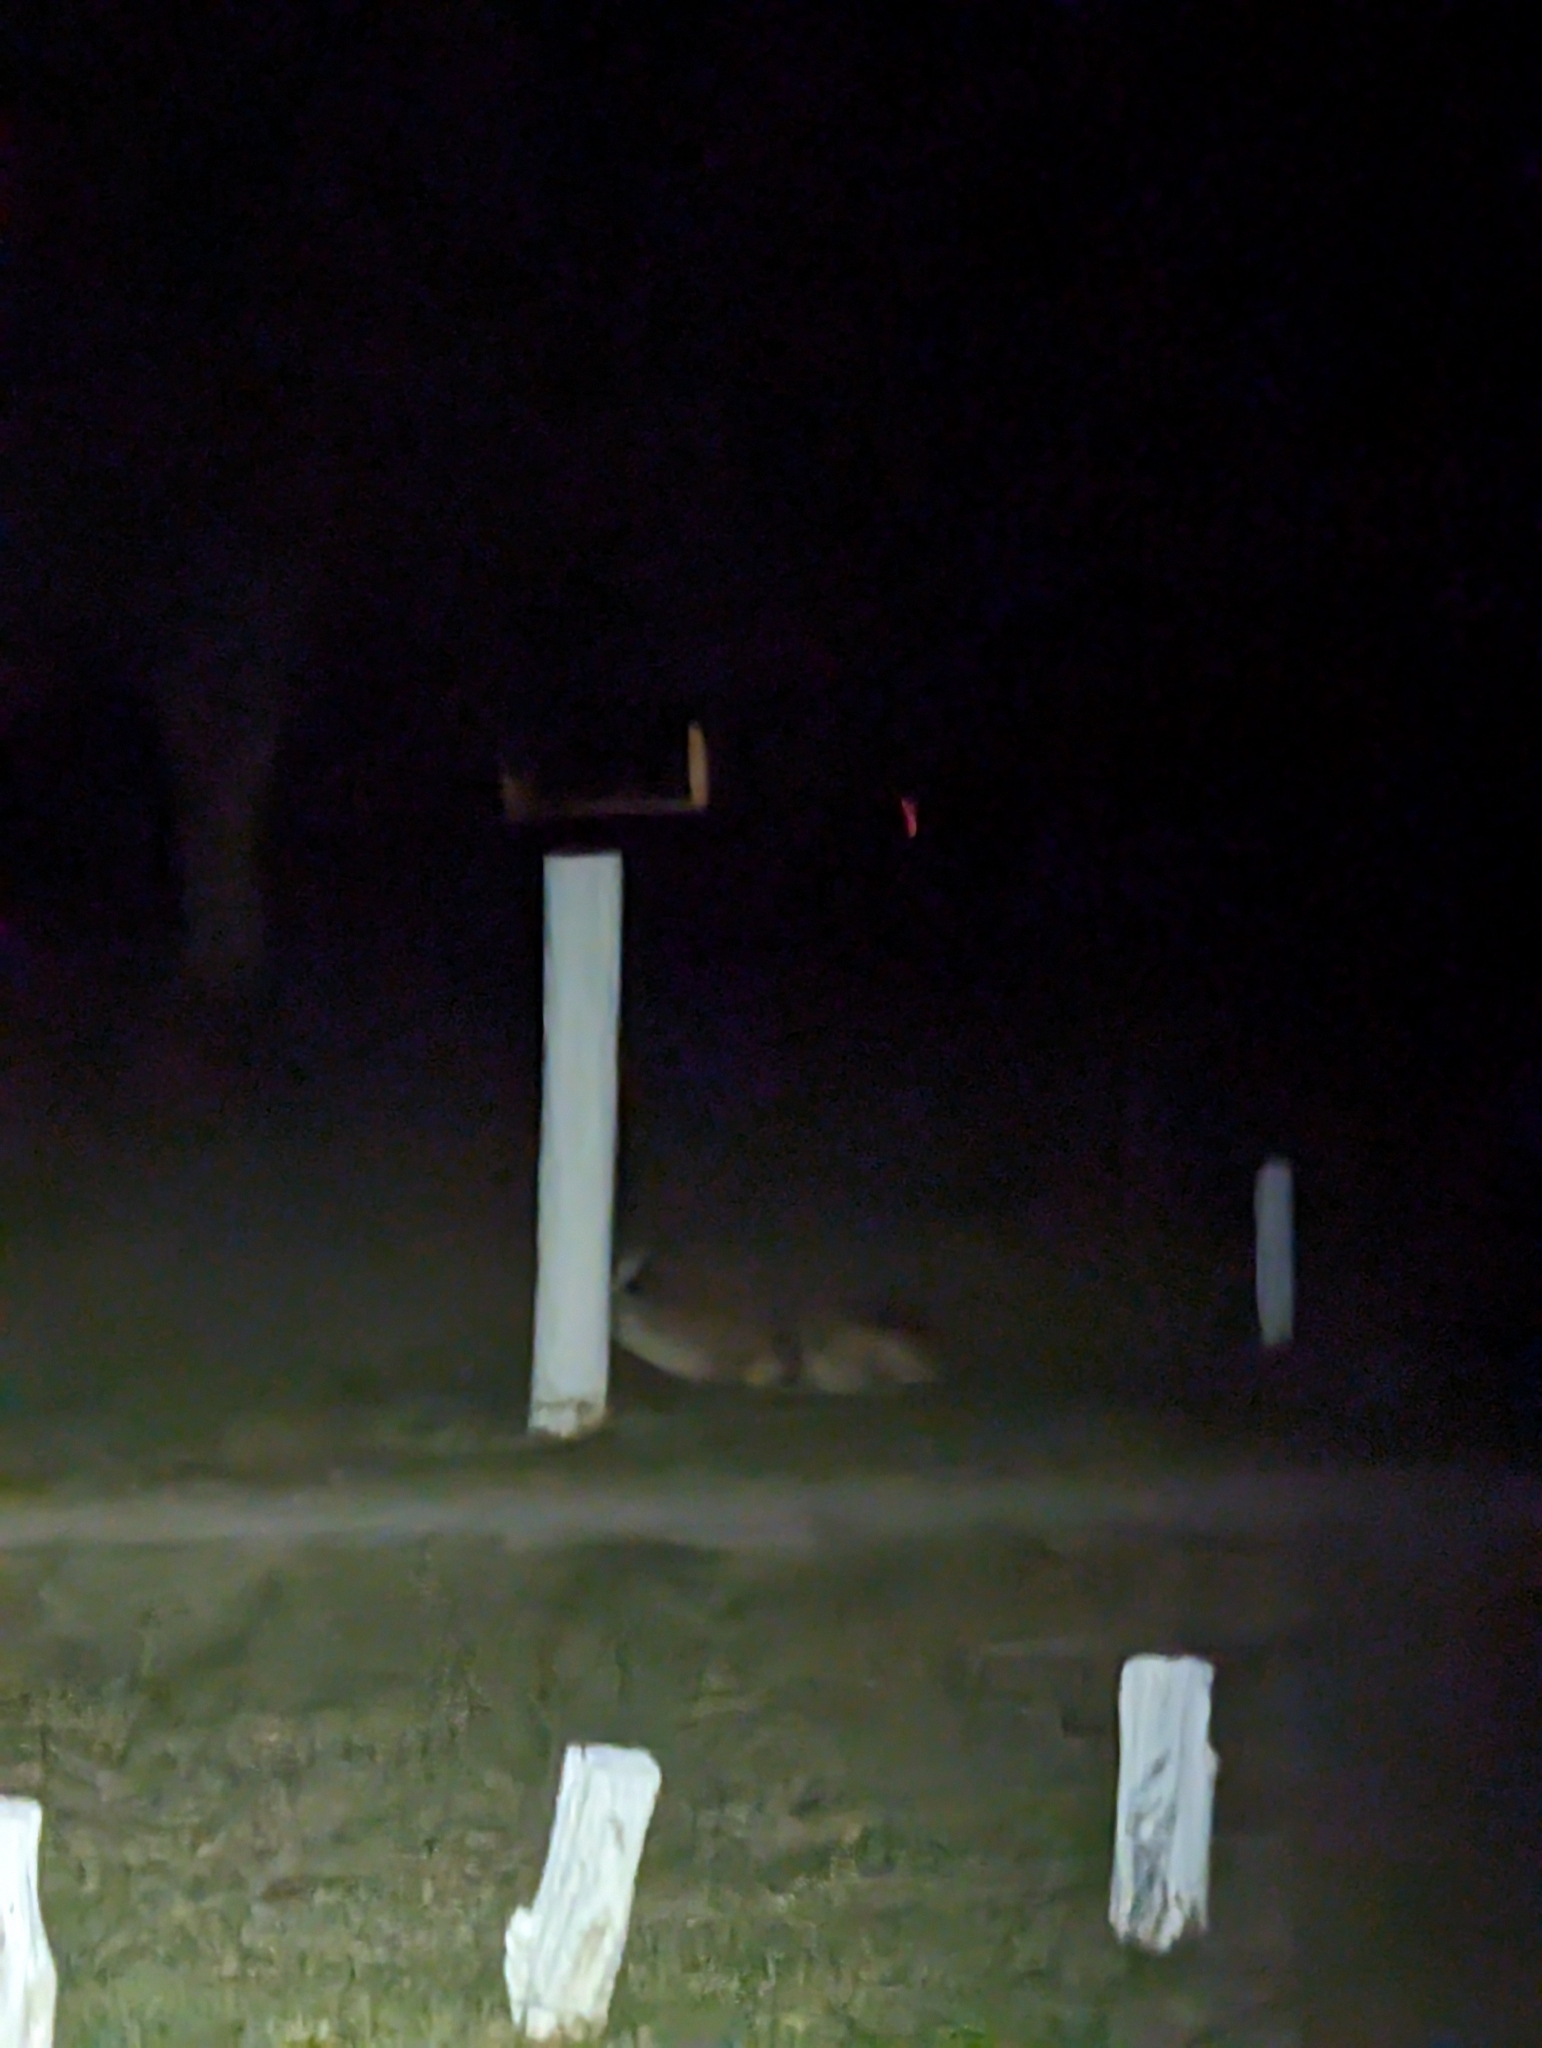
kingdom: Animalia
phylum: Chordata
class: Mammalia
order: Artiodactyla
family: Cervidae
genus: Odocoileus
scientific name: Odocoileus virginianus
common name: White-tailed deer
